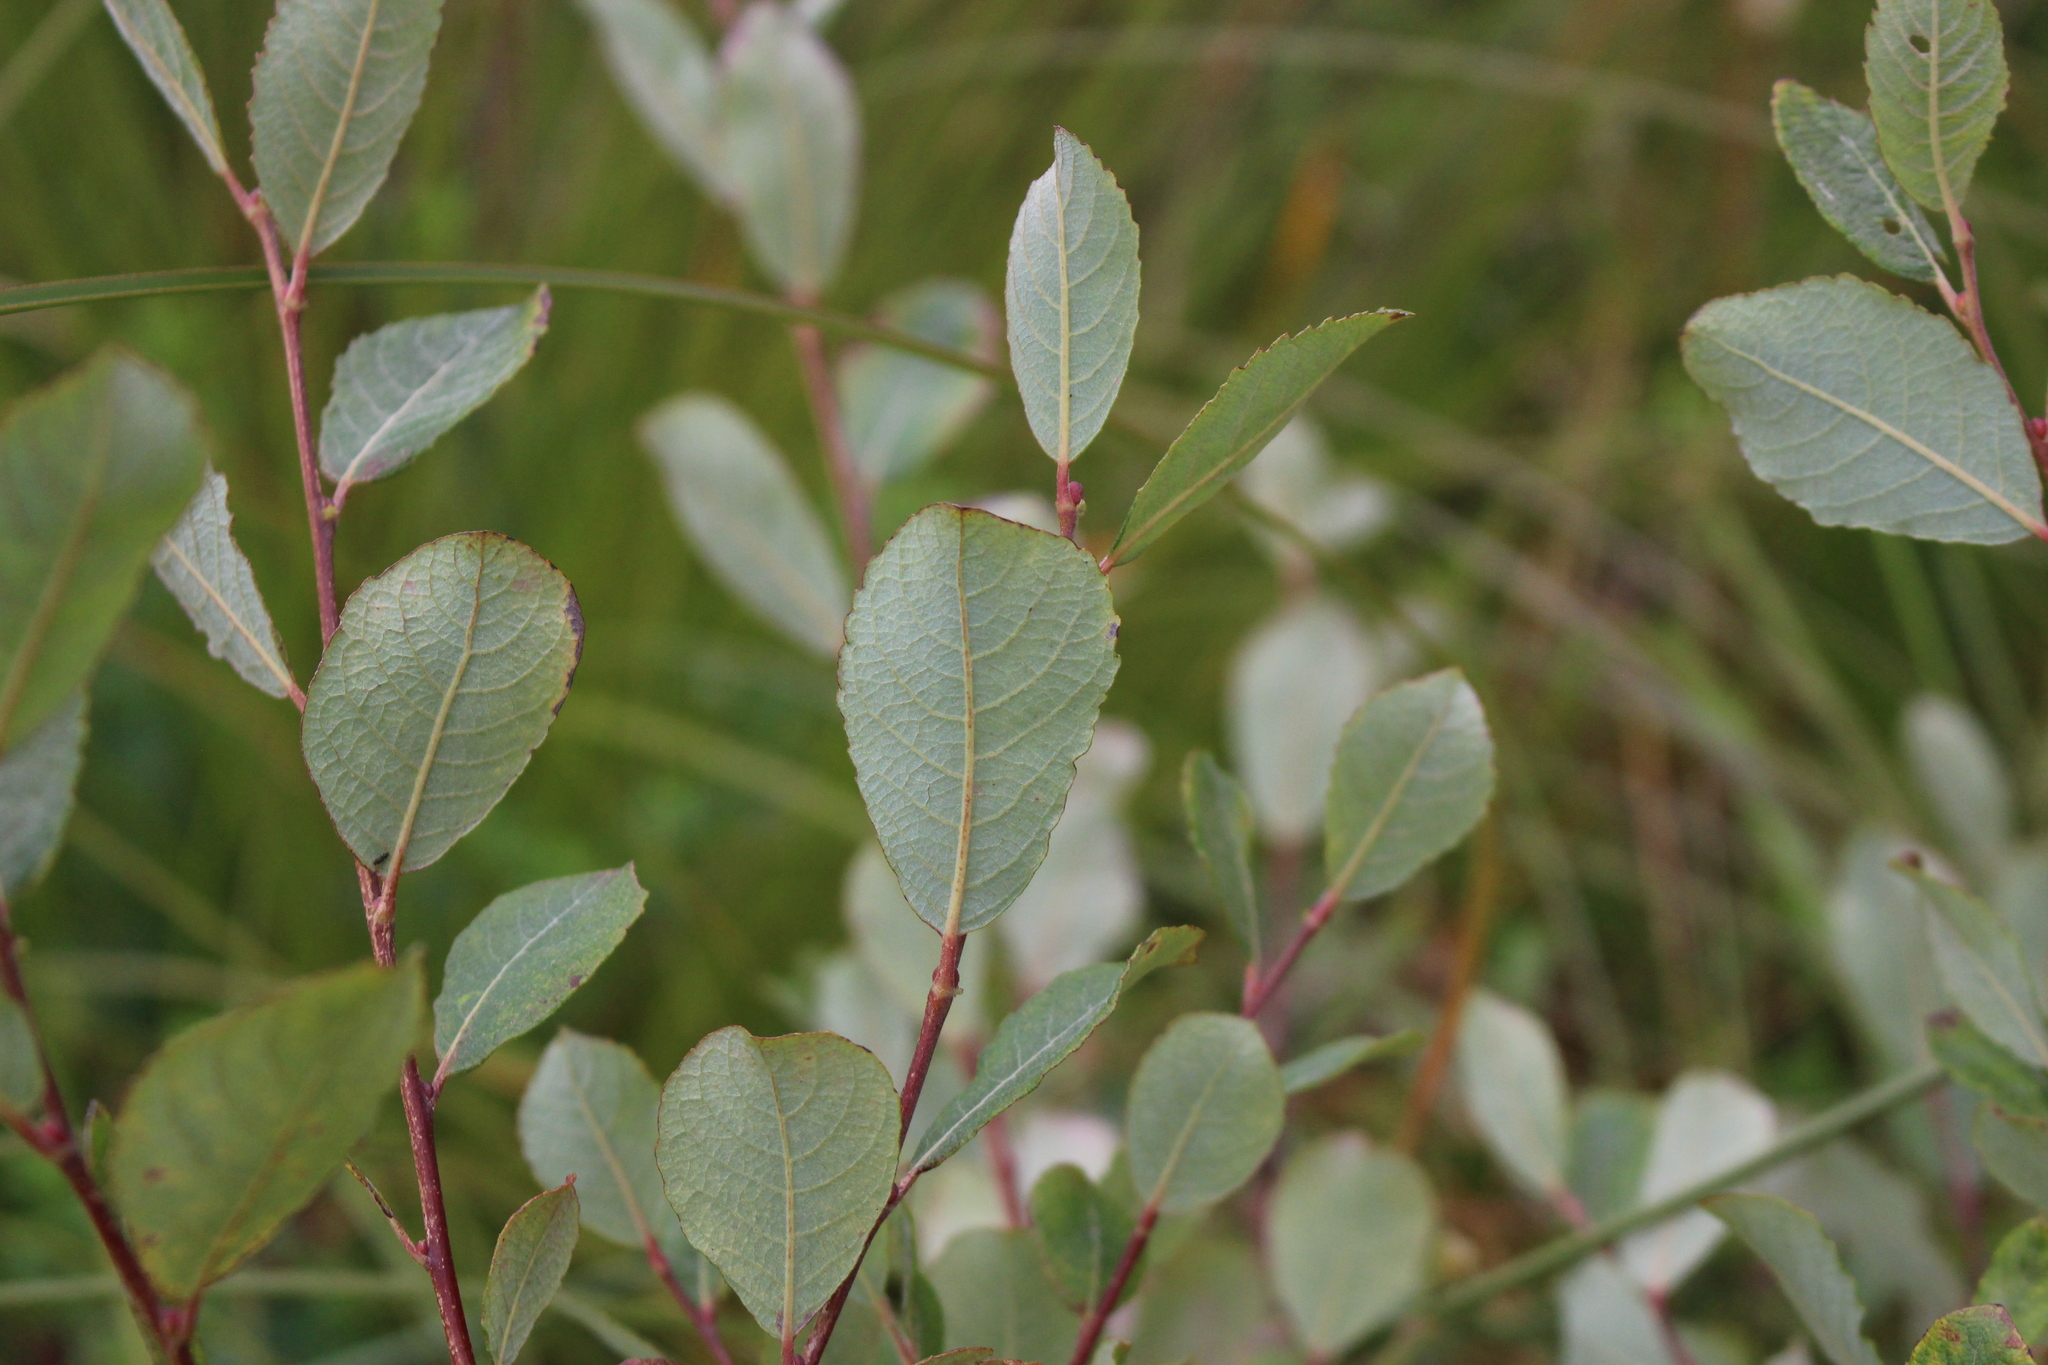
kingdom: Plantae
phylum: Tracheophyta
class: Magnoliopsida
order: Malpighiales
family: Salicaceae
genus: Salix
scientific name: Salix cinerea
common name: Common sallow
